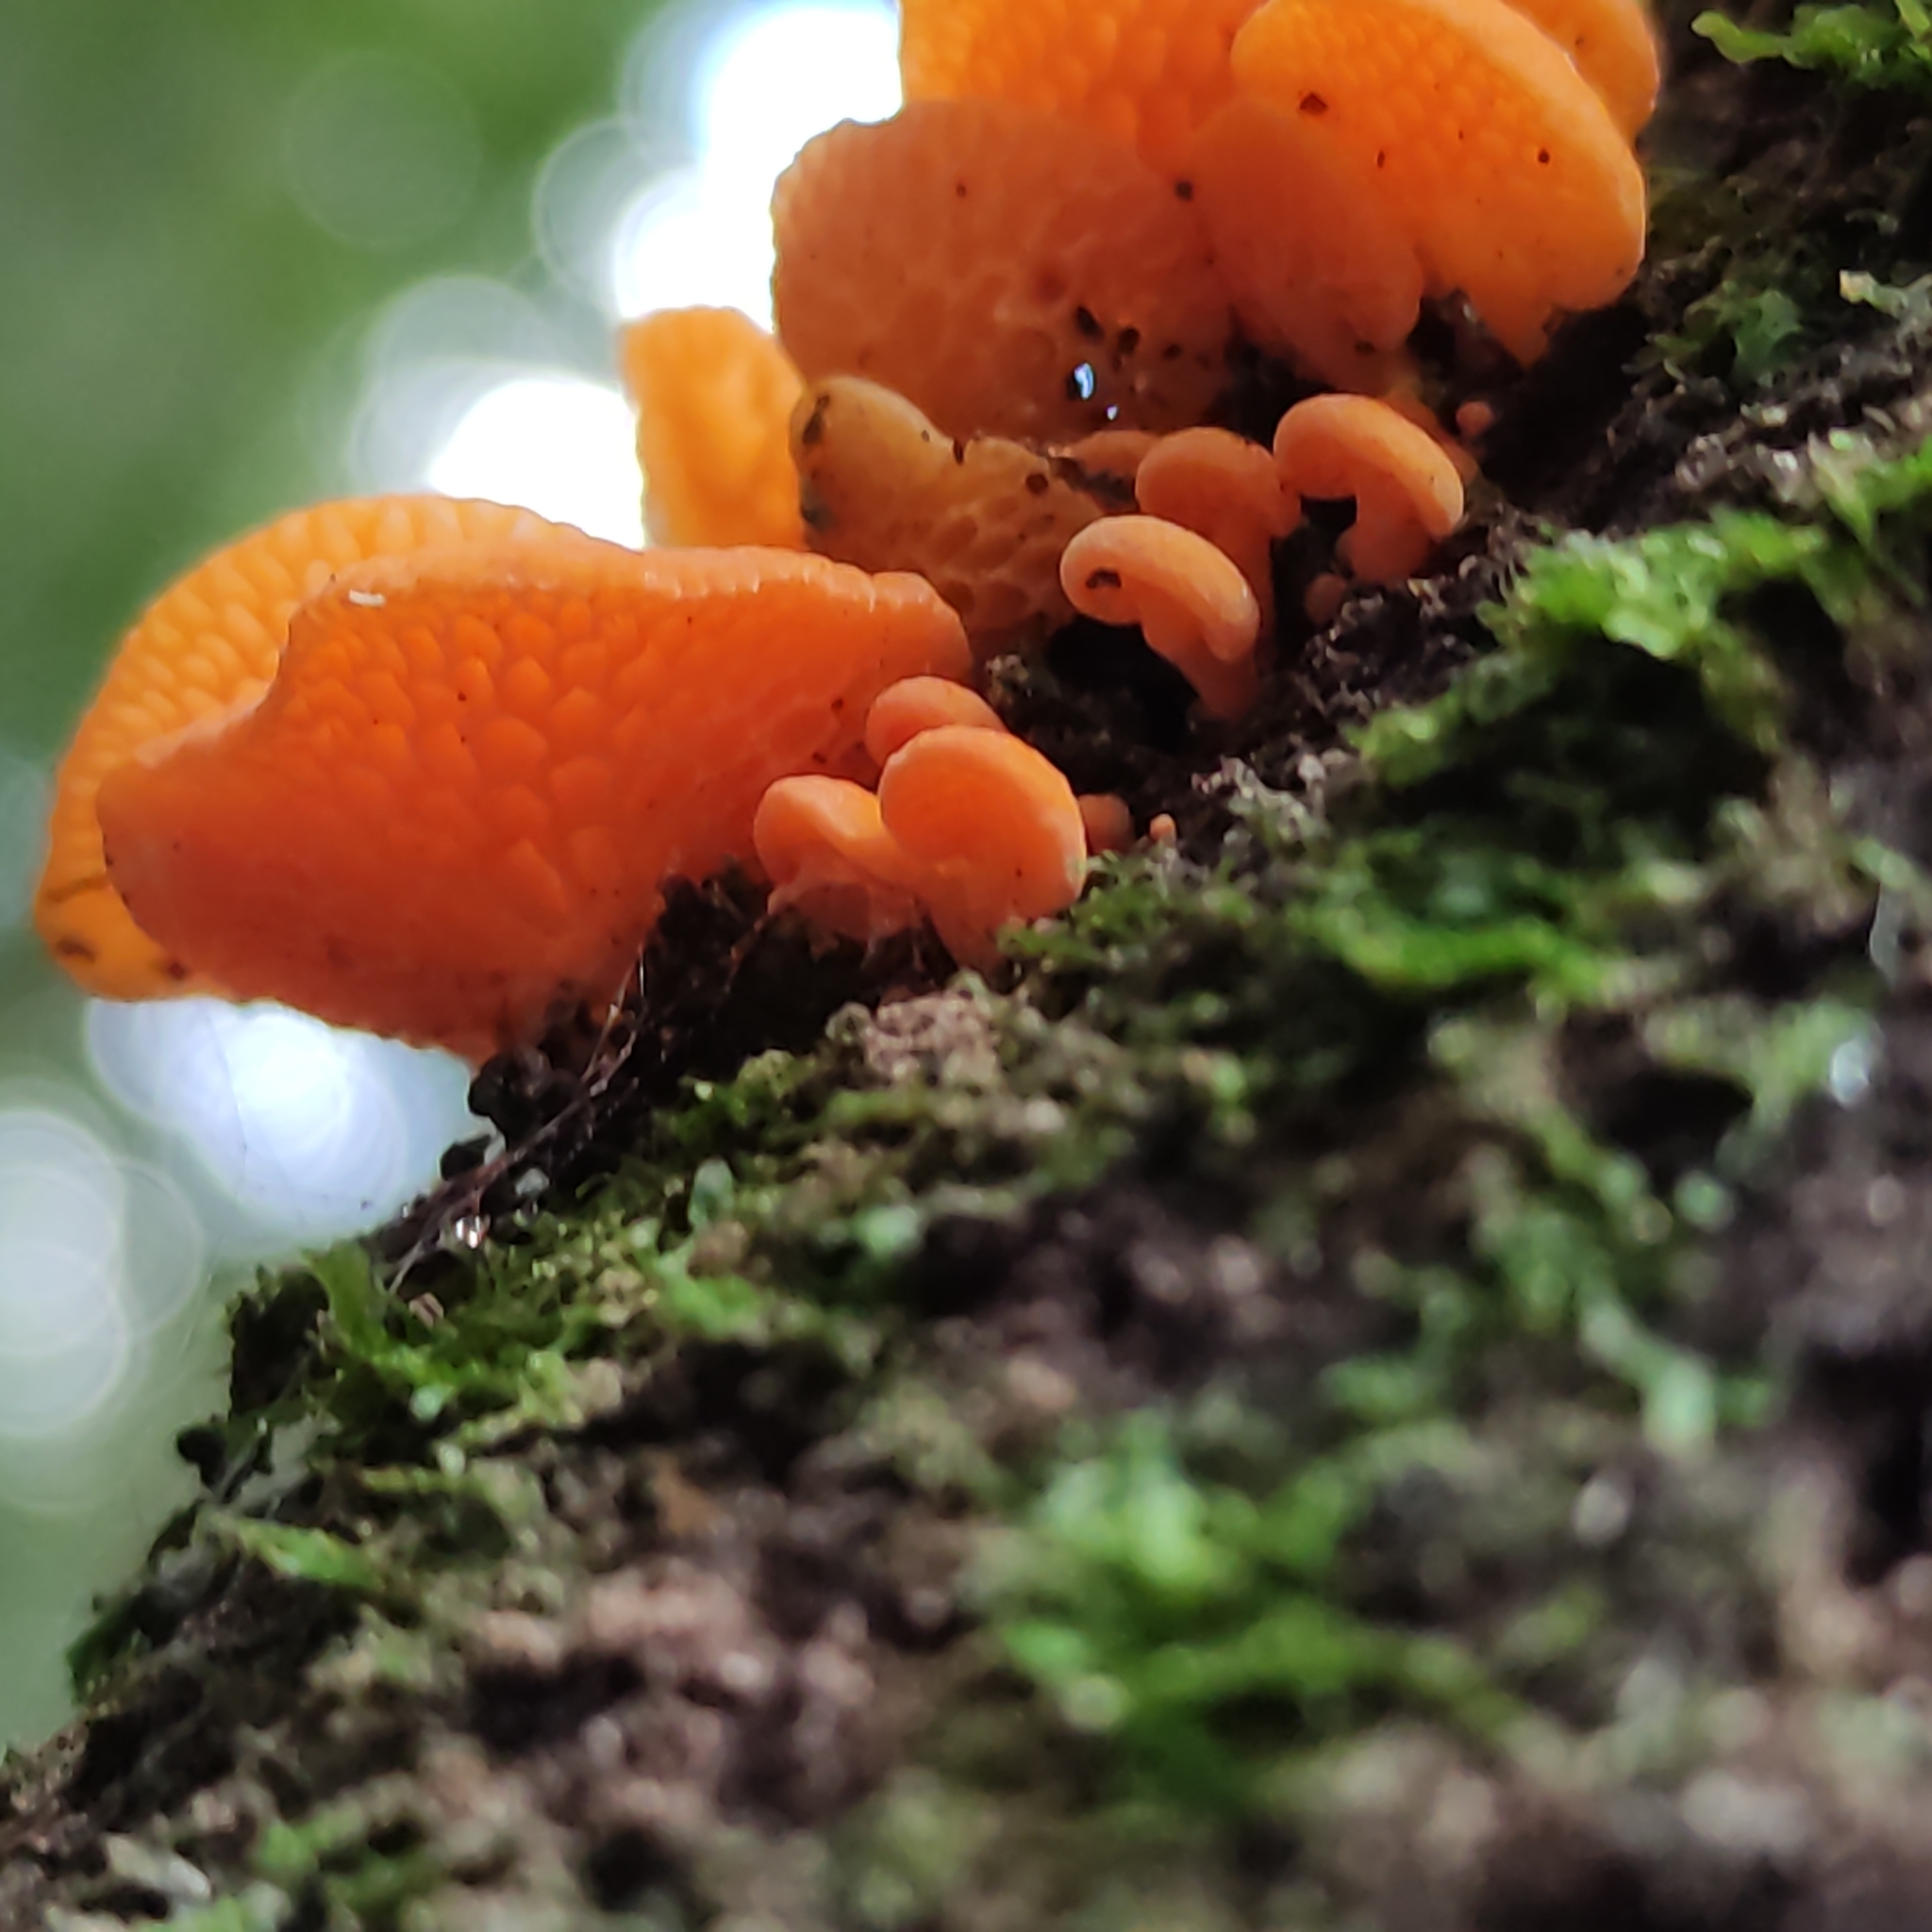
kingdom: Fungi
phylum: Basidiomycota
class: Agaricomycetes
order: Agaricales
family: Mycenaceae
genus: Favolaschia
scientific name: Favolaschia claudopus
